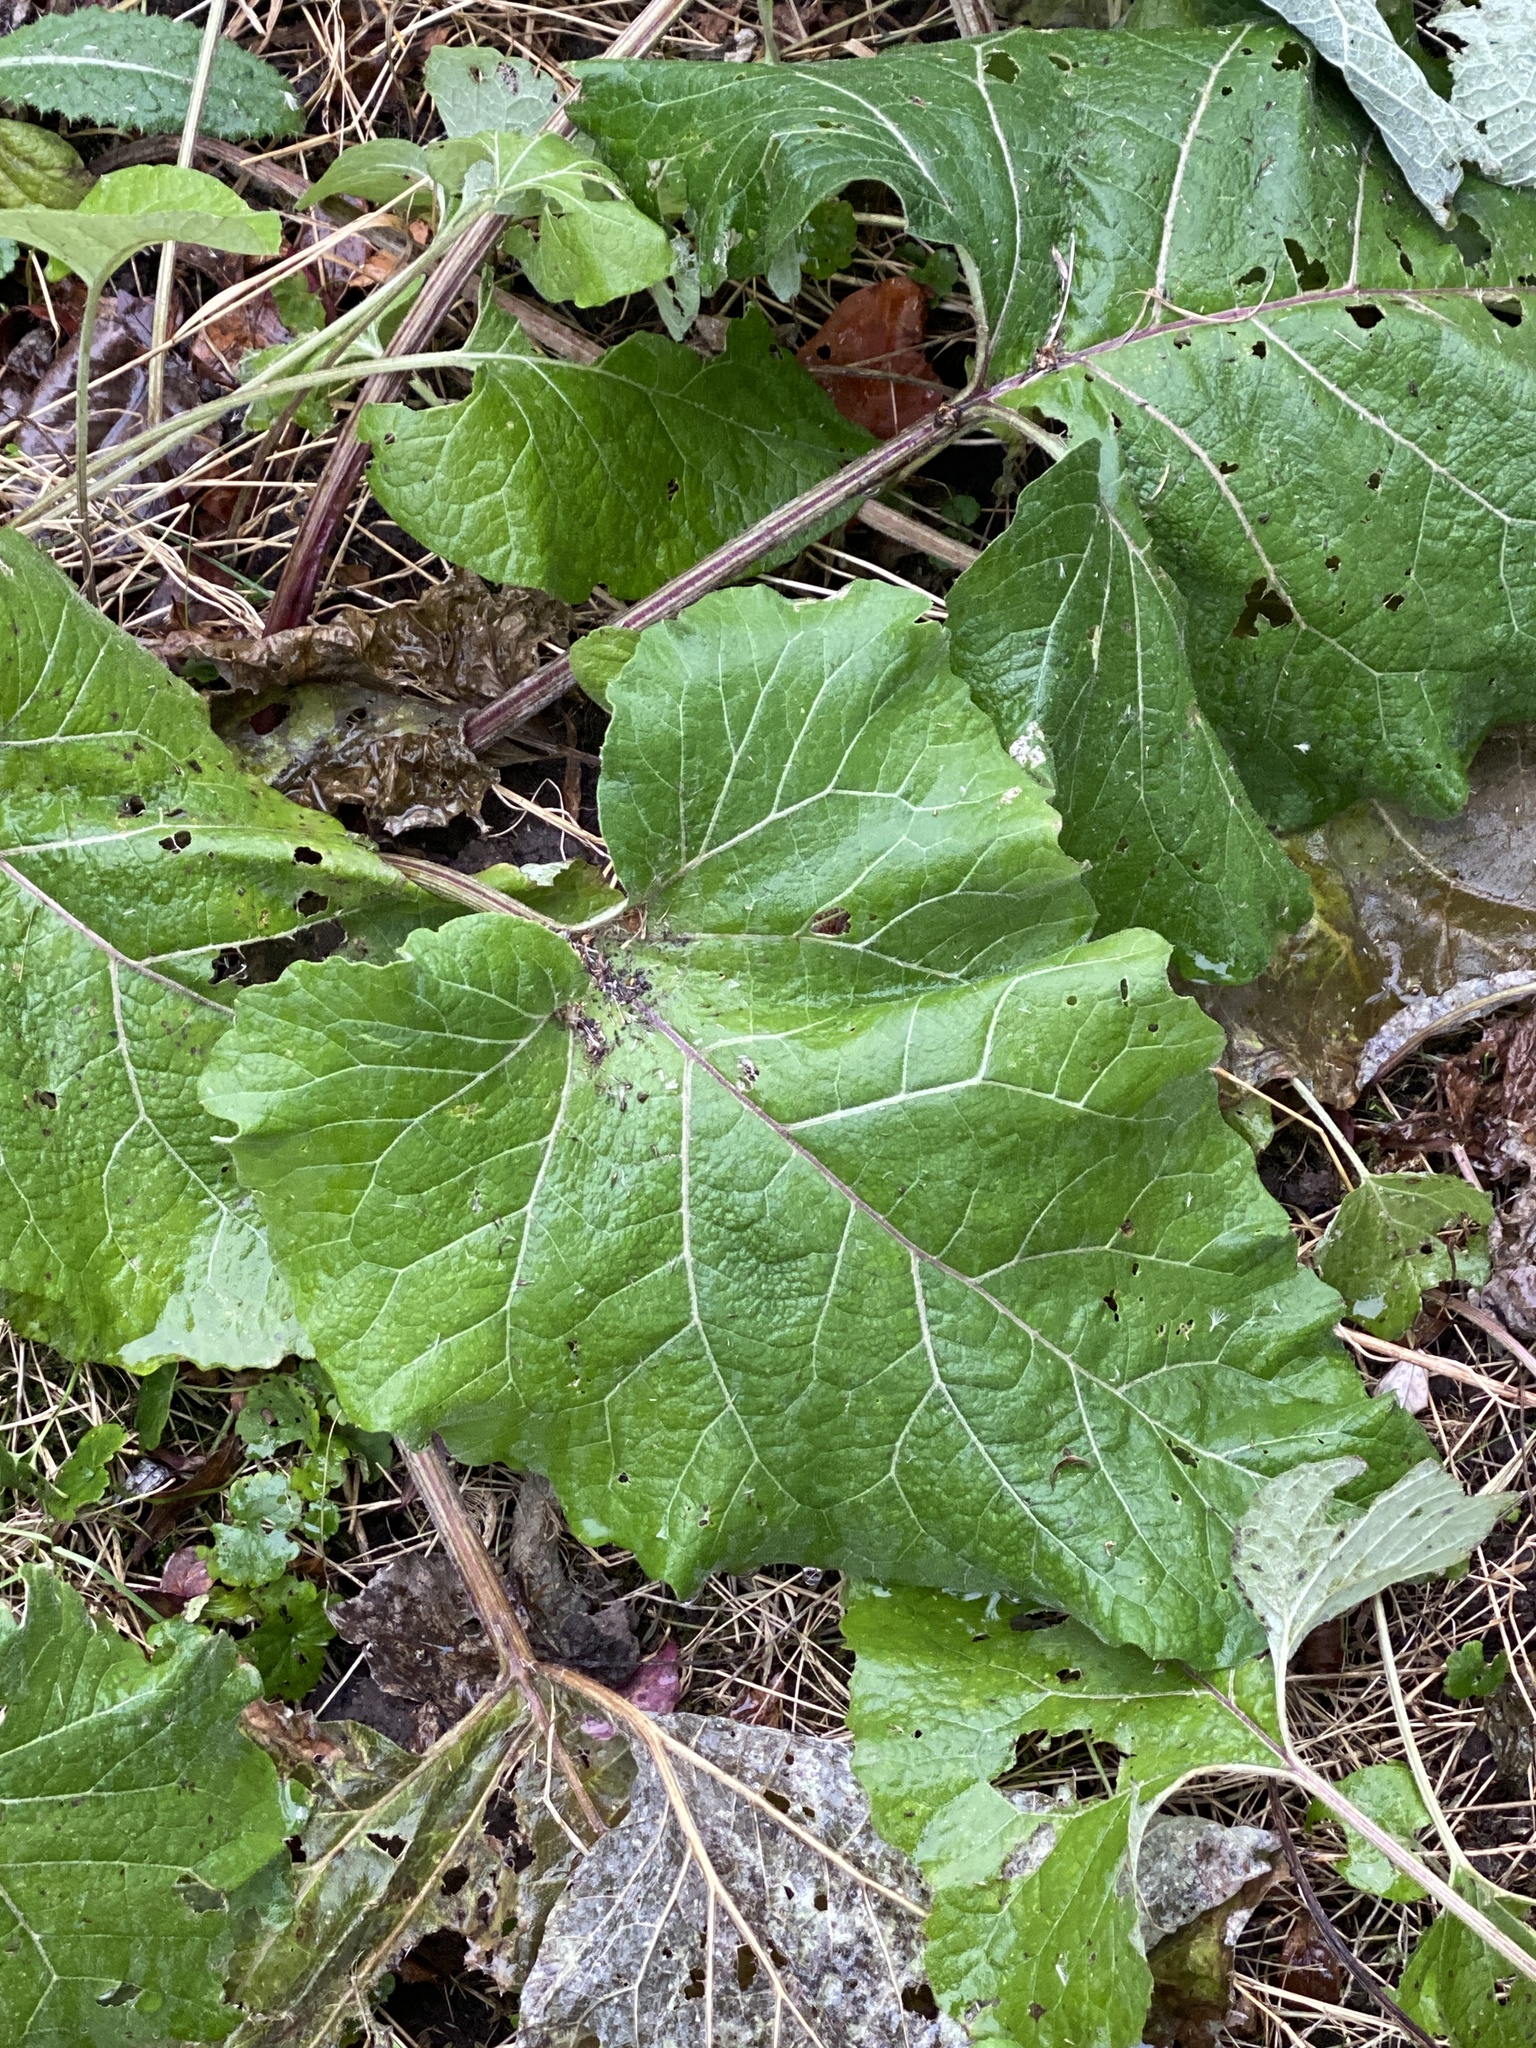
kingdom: Plantae
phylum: Tracheophyta
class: Magnoliopsida
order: Asterales
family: Asteraceae
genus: Arctium
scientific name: Arctium minus
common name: Lesser burdock
